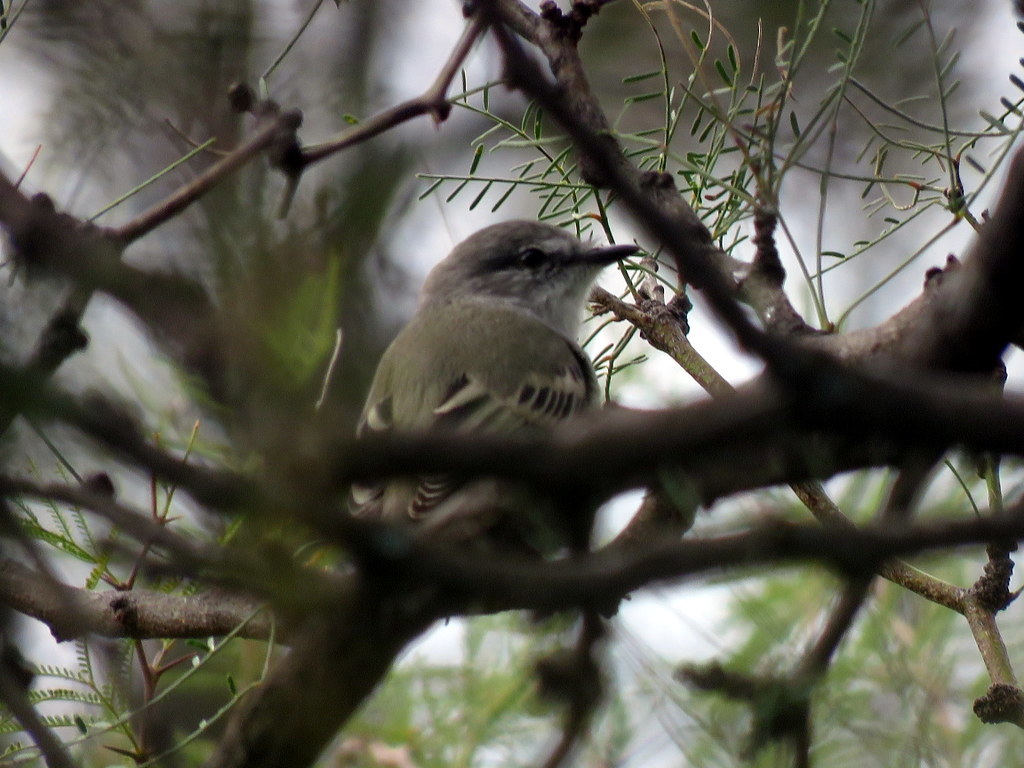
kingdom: Animalia
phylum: Chordata
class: Aves
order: Passeriformes
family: Tyrannidae
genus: Suiriri
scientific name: Suiriri suiriri
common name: Suiriri flycatcher
